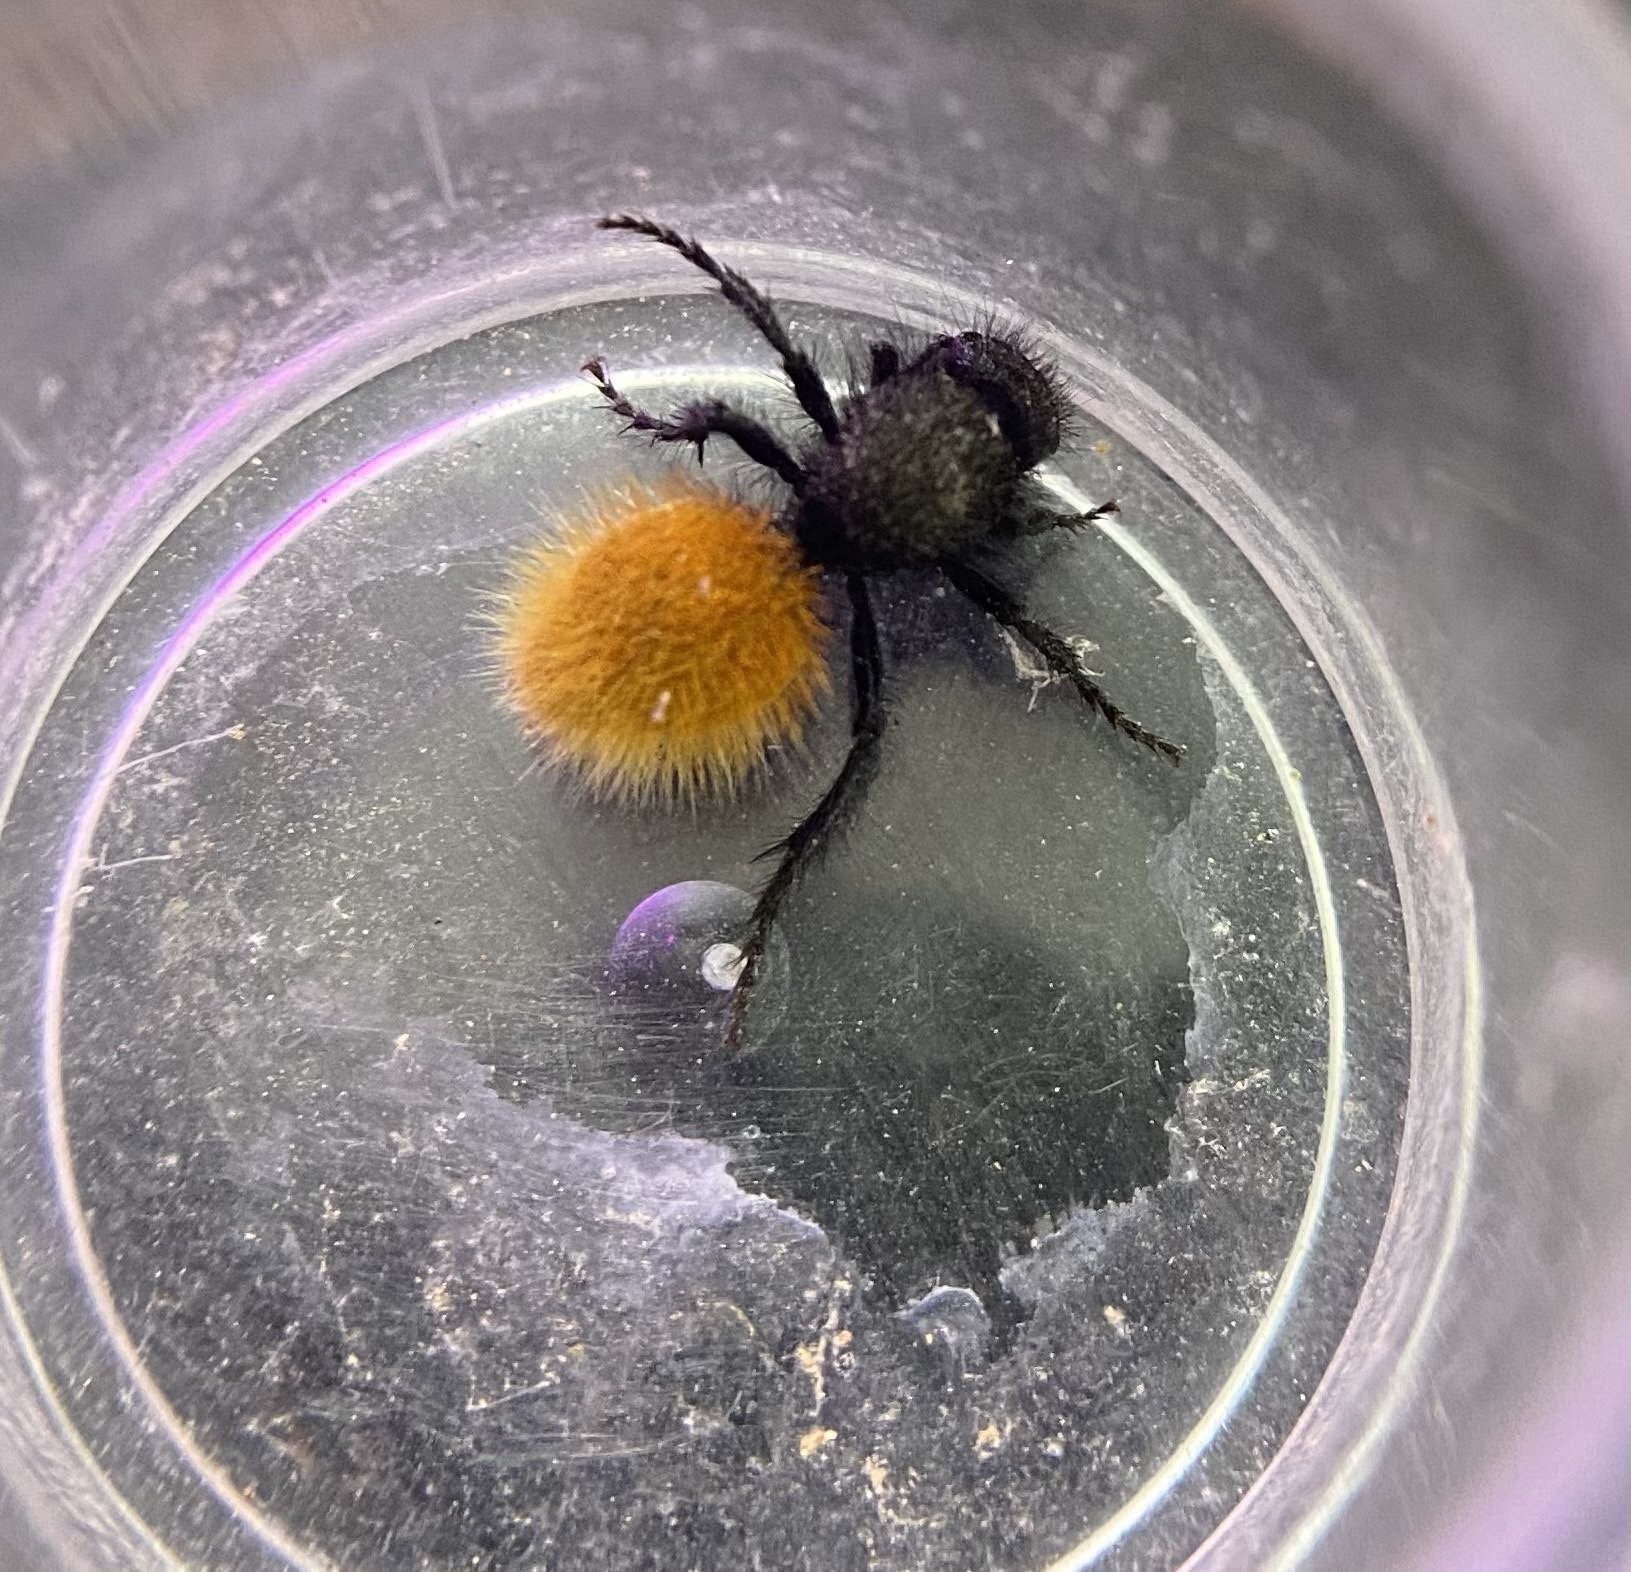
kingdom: Animalia
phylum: Arthropoda
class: Insecta
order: Hymenoptera
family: Mutillidae
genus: Dasymutilla
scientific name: Dasymutilla vestita
